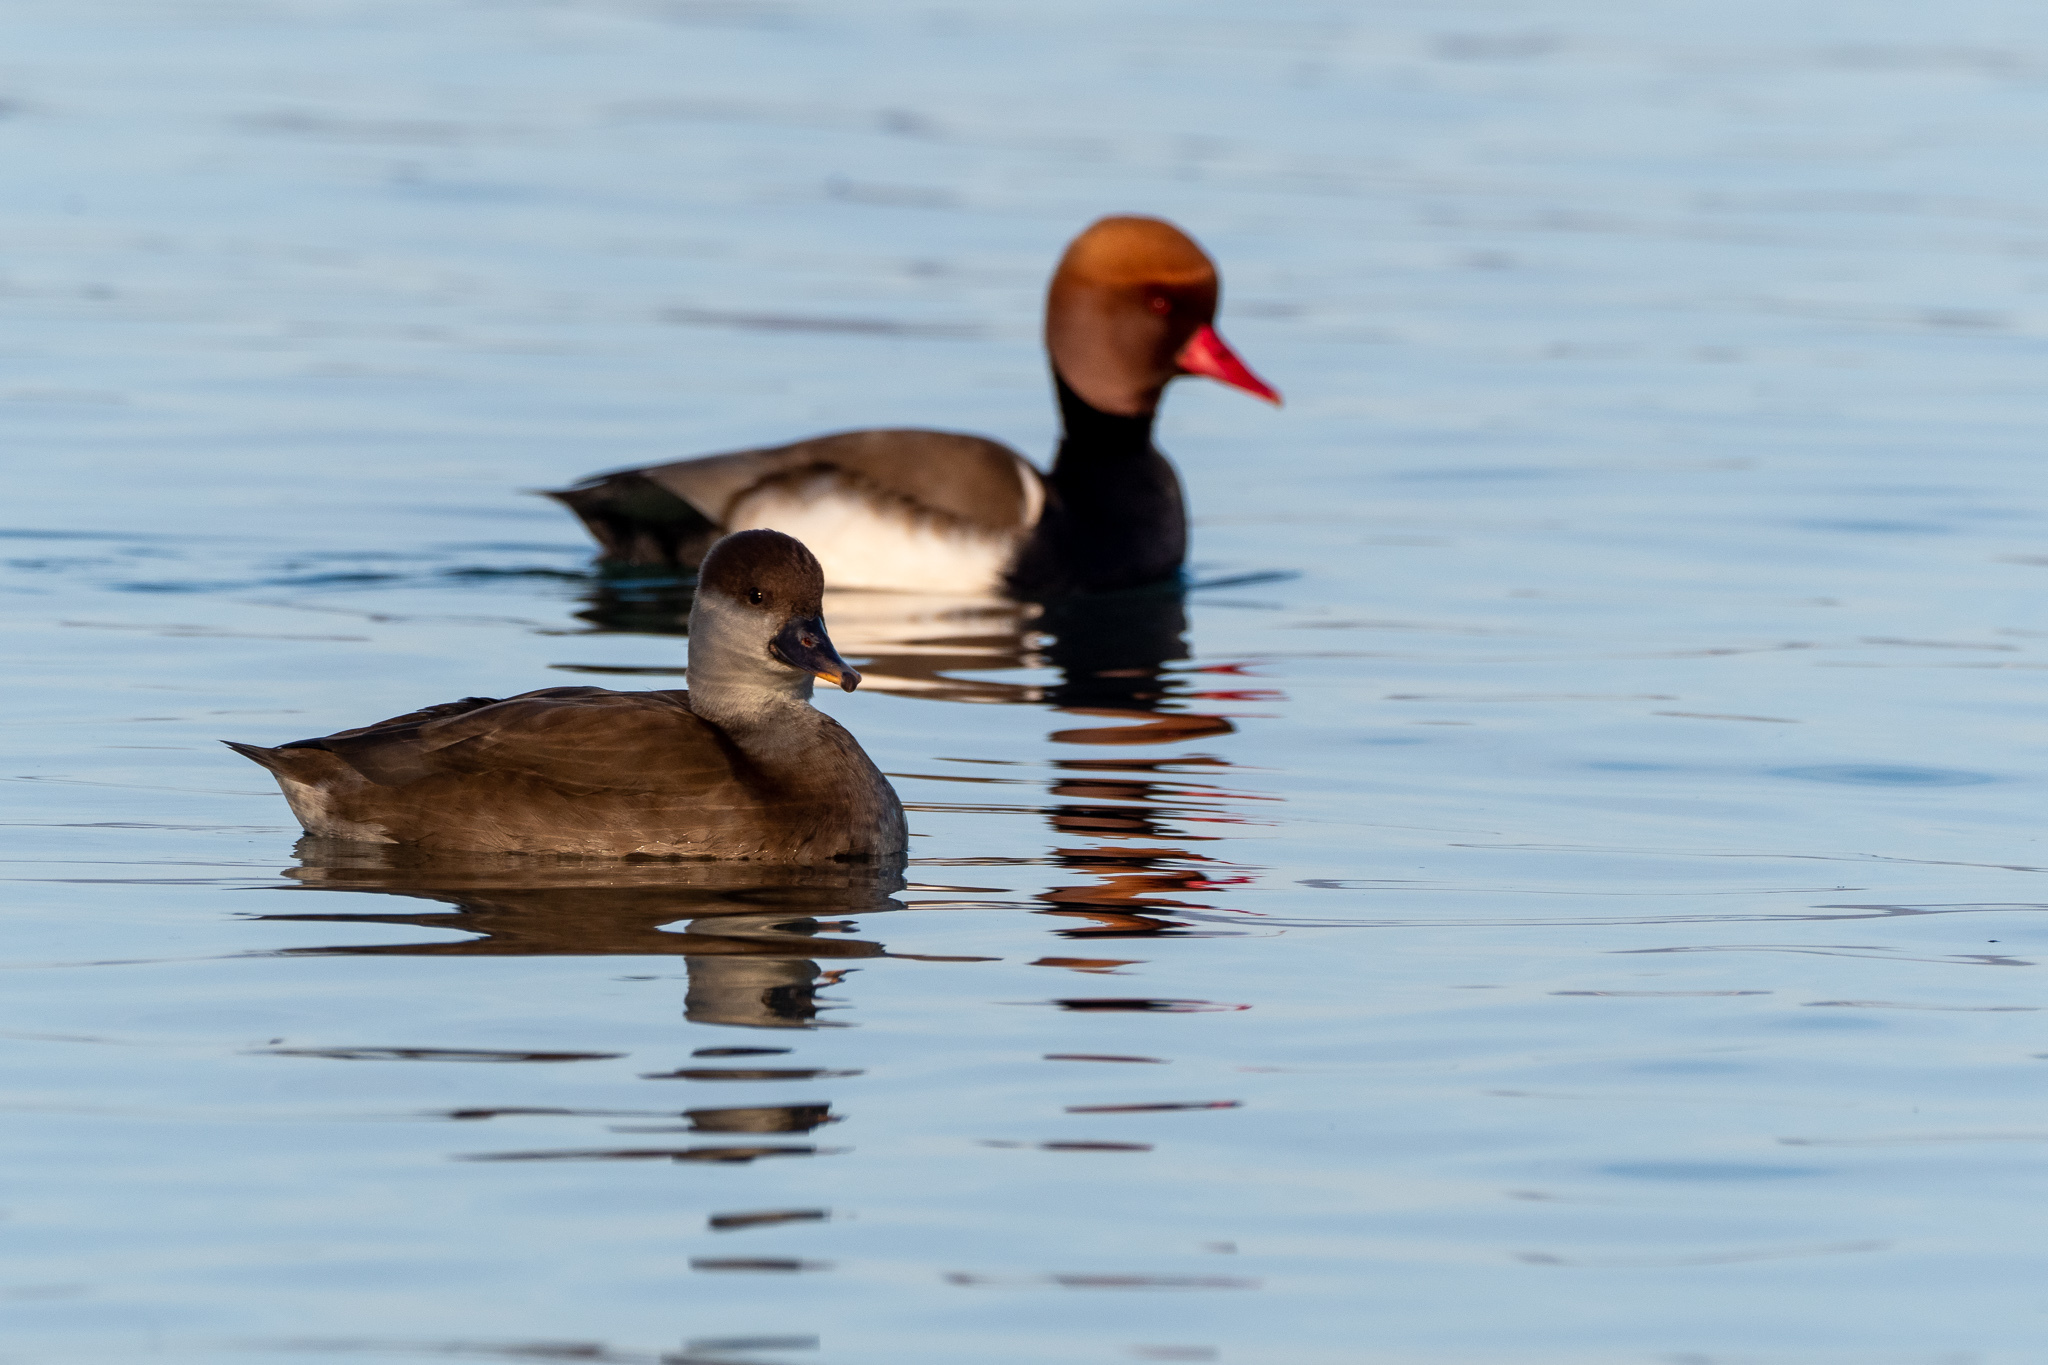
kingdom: Animalia
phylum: Chordata
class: Aves
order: Anseriformes
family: Anatidae
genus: Netta
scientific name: Netta rufina
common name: Red-crested pochard
